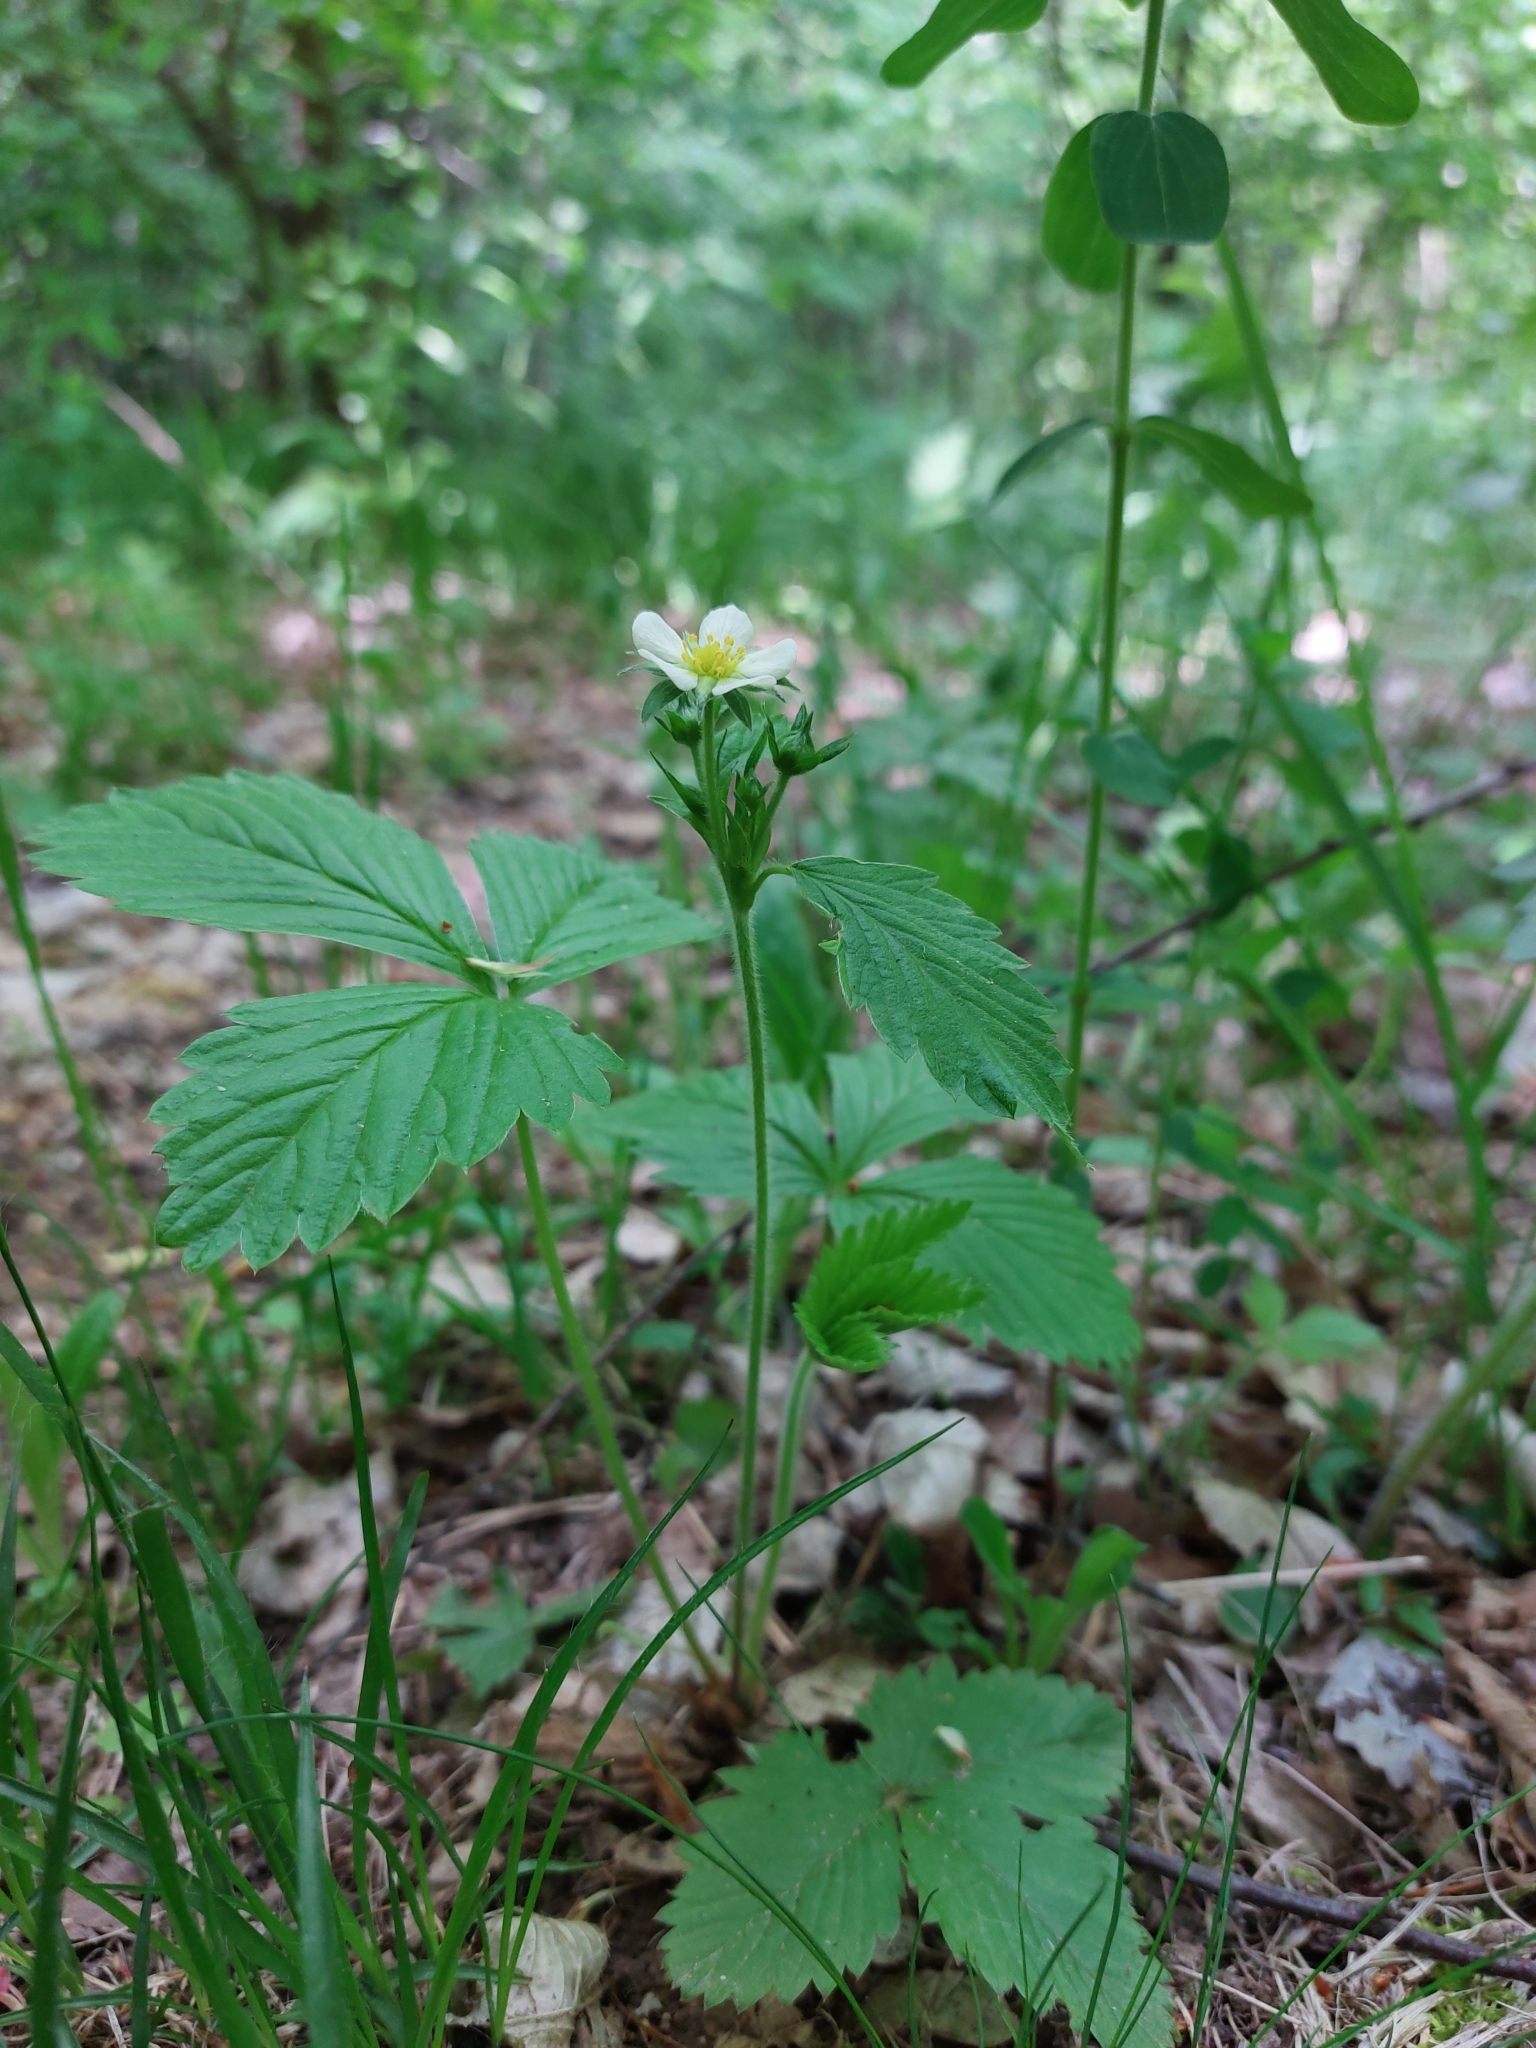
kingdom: Plantae
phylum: Tracheophyta
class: Magnoliopsida
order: Rosales
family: Rosaceae
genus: Fragaria
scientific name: Fragaria vesca
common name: Wild strawberry
